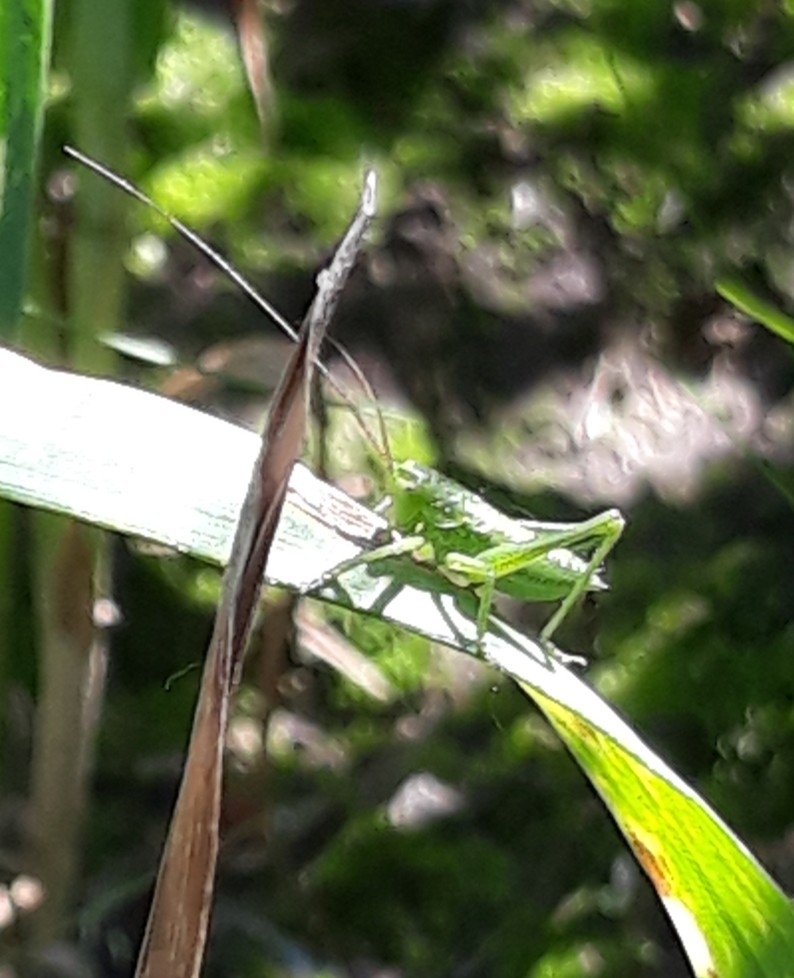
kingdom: Animalia
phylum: Arthropoda
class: Insecta
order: Orthoptera
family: Tettigoniidae
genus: Tettigonia
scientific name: Tettigonia viridissima
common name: Great green bush-cricket
